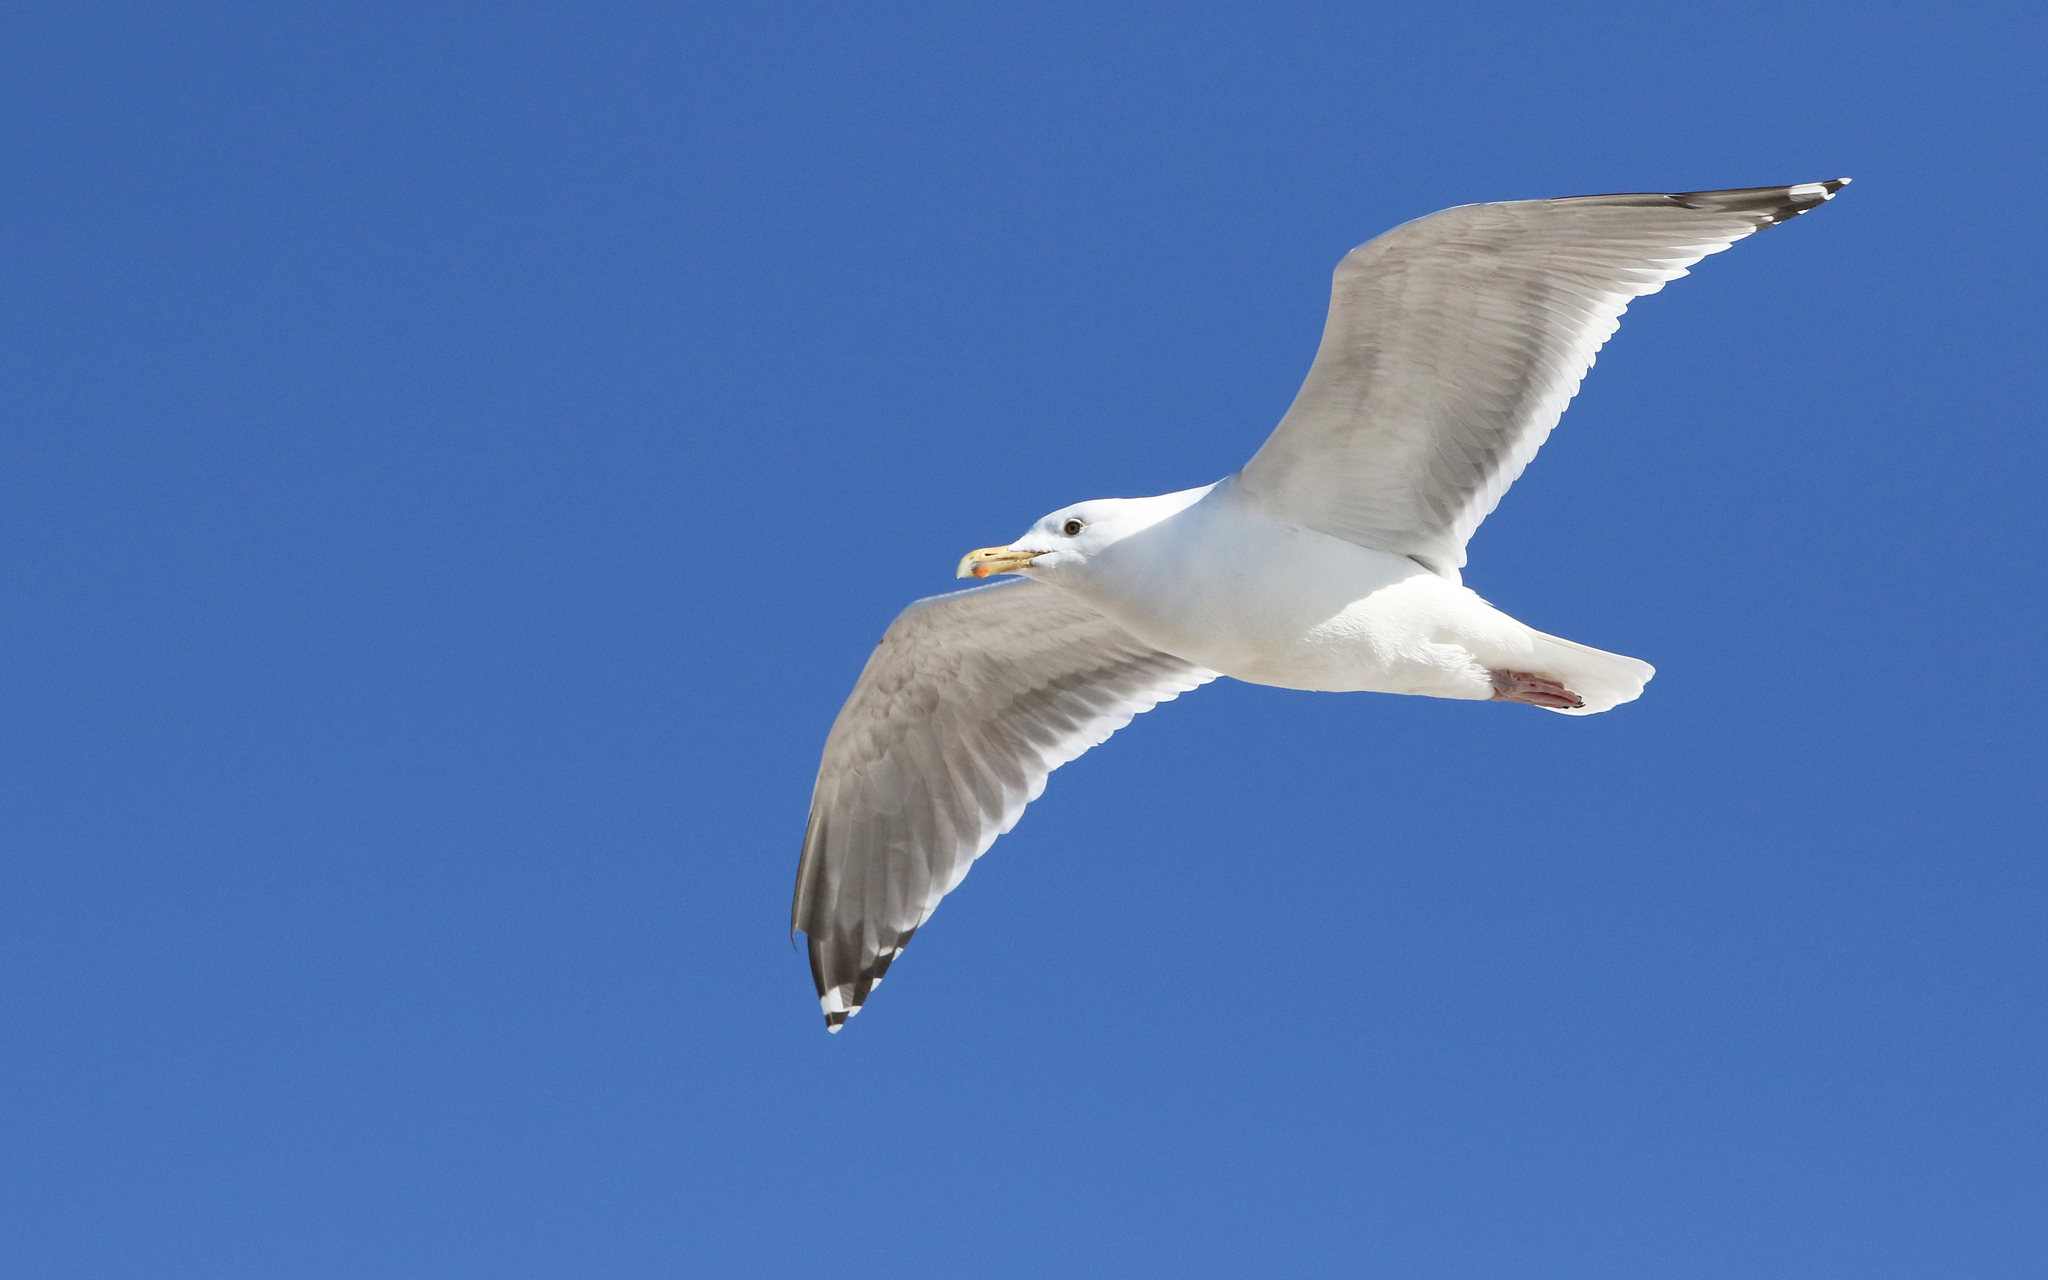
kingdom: Animalia
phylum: Chordata
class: Aves
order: Charadriiformes
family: Laridae
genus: Larus
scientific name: Larus argentatus
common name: Herring gull
